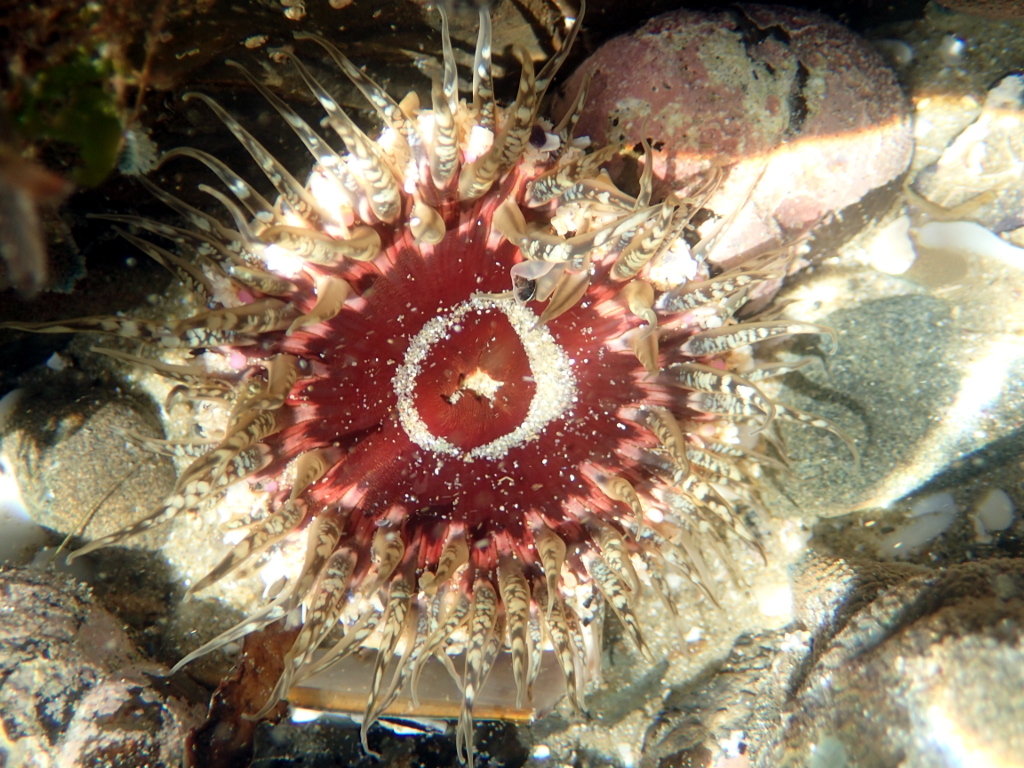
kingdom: Animalia
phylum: Cnidaria
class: Anthozoa
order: Actiniaria
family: Actiniidae
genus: Oulactis
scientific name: Oulactis muscosa
